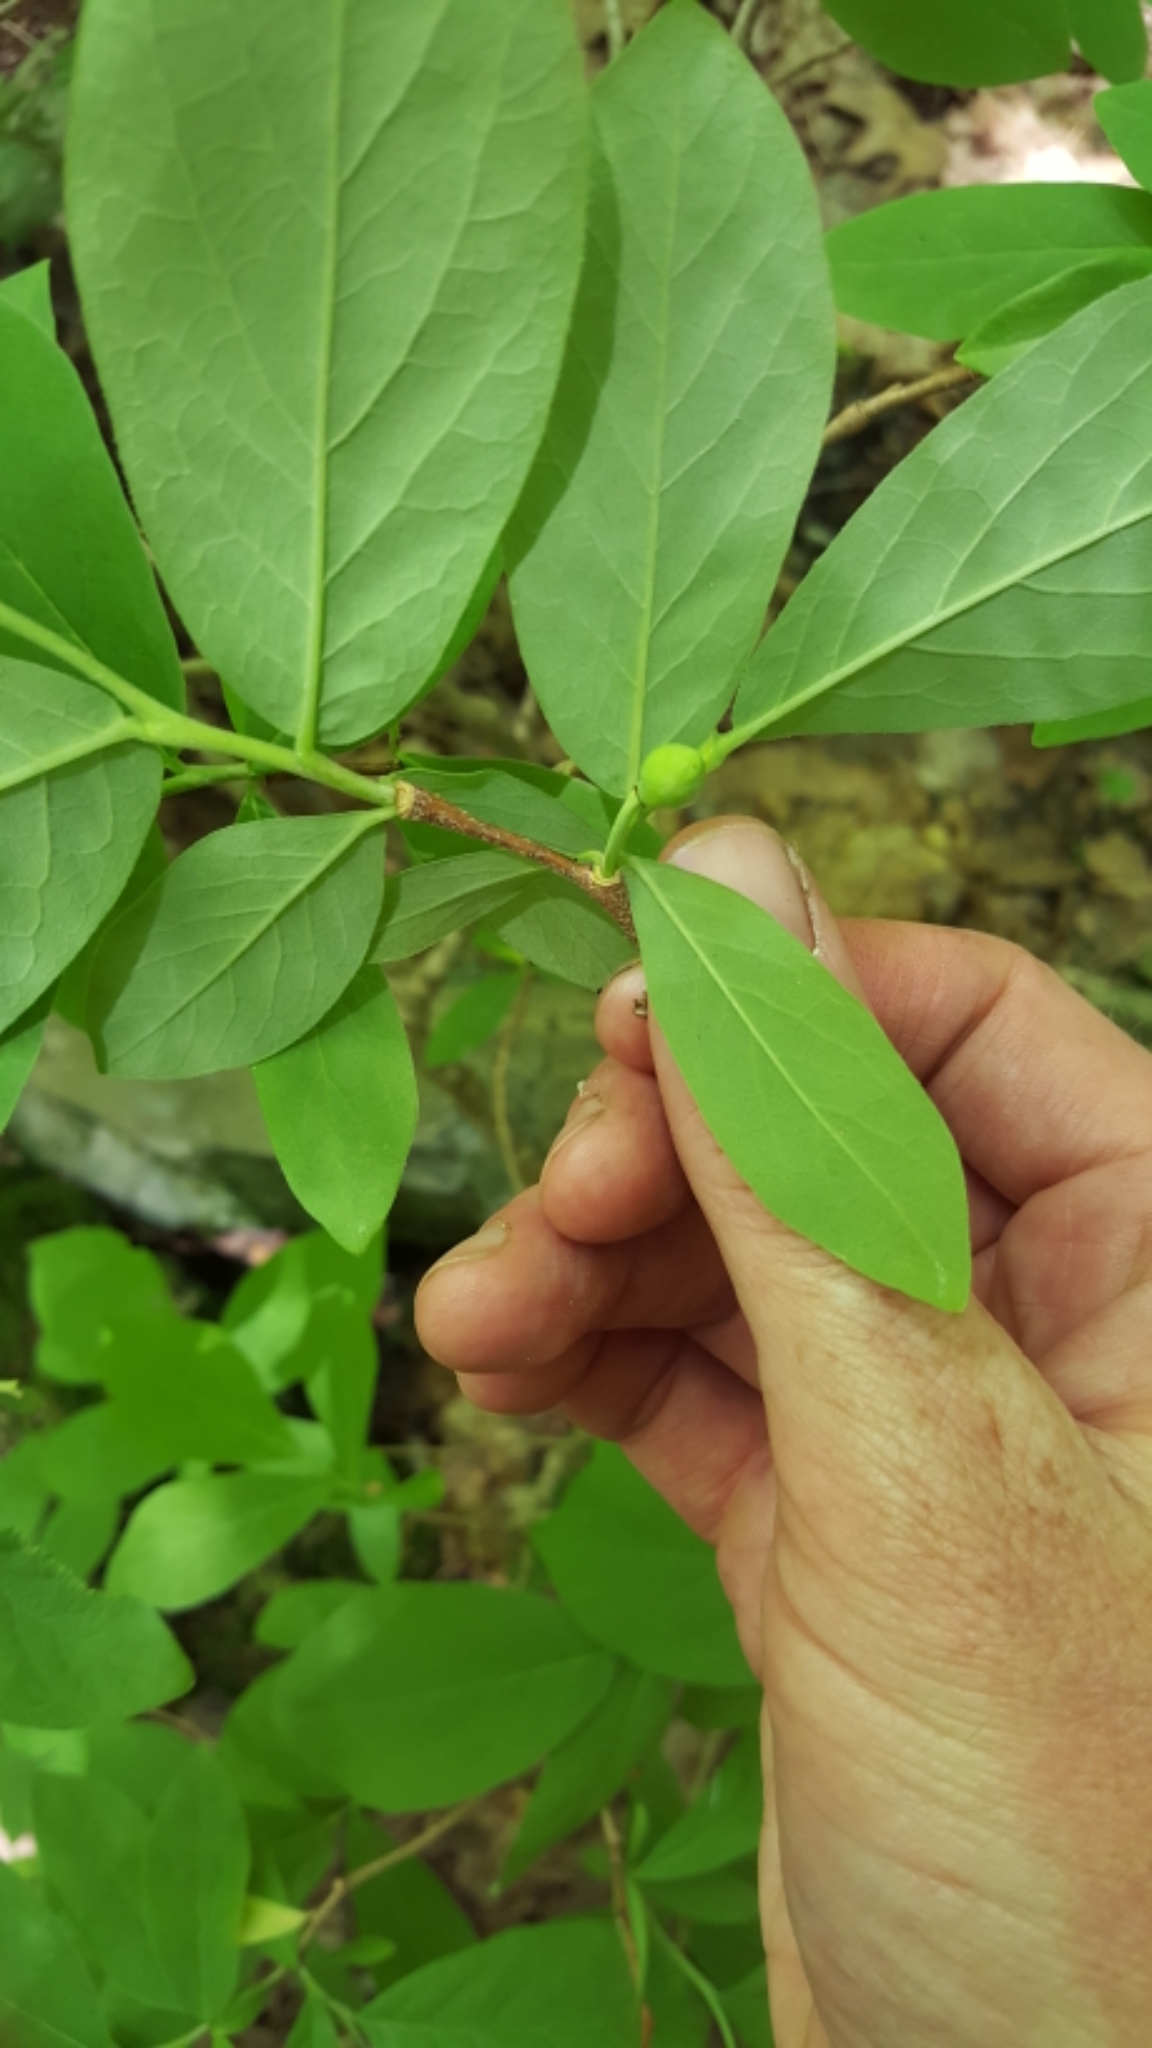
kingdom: Plantae
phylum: Tracheophyta
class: Magnoliopsida
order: Malvales
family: Thymelaeaceae
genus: Dirca
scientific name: Dirca palustris
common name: Leatherwood
